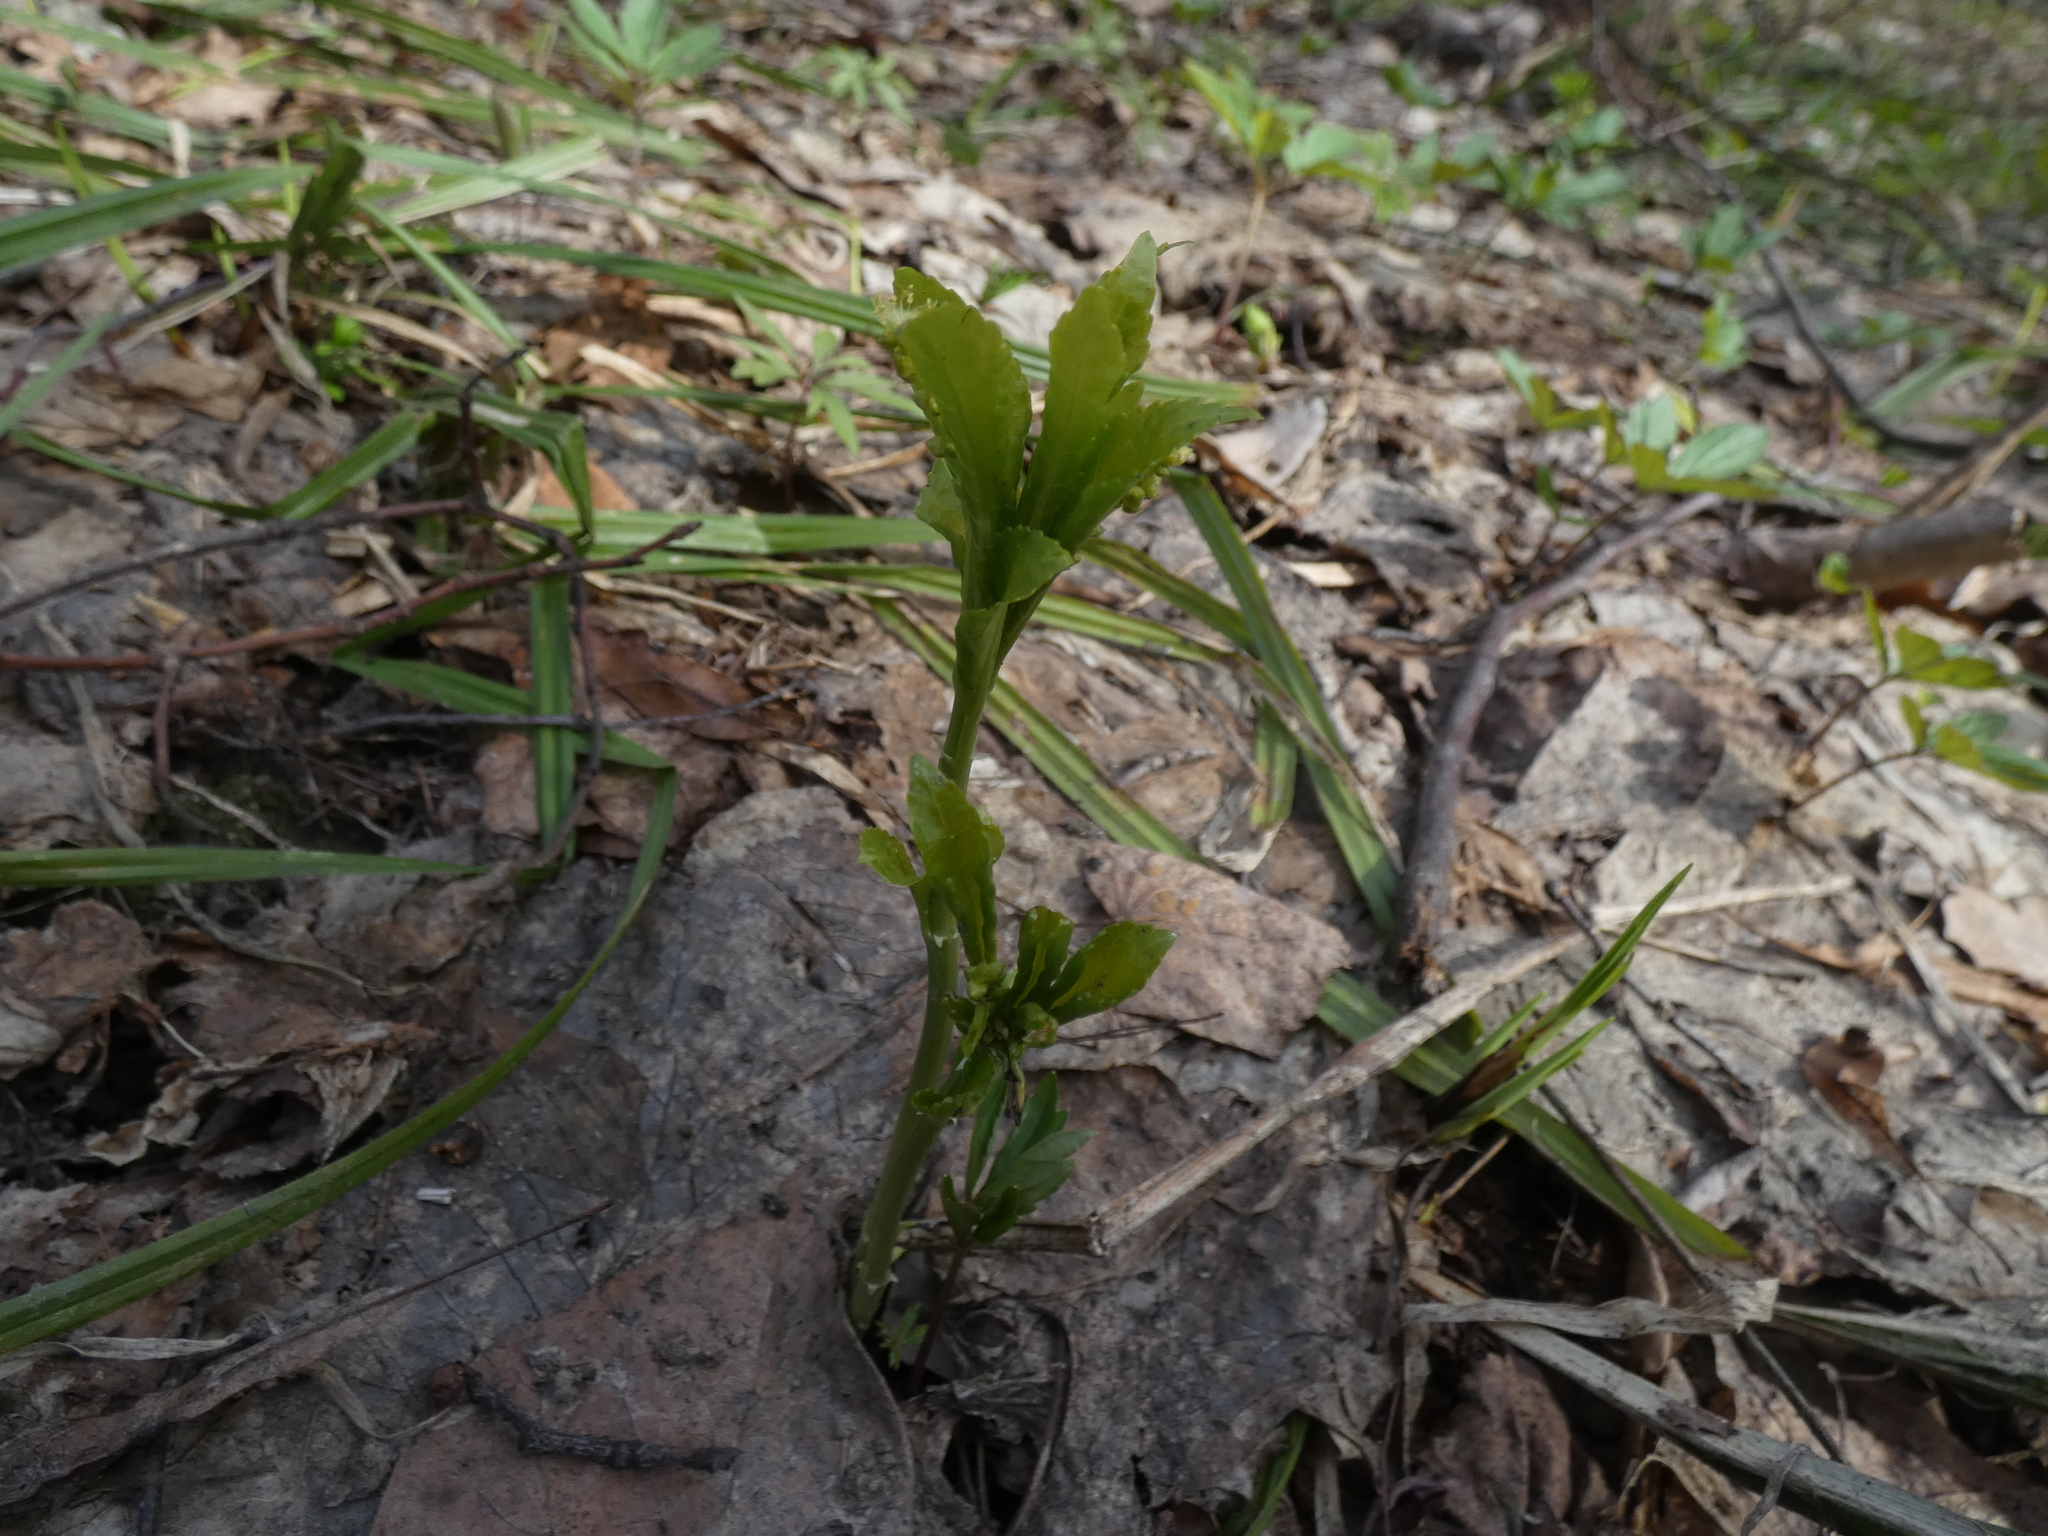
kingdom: Plantae
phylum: Tracheophyta
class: Magnoliopsida
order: Malpighiales
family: Euphorbiaceae
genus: Mercurialis
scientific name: Mercurialis perennis
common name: Dog mercury
